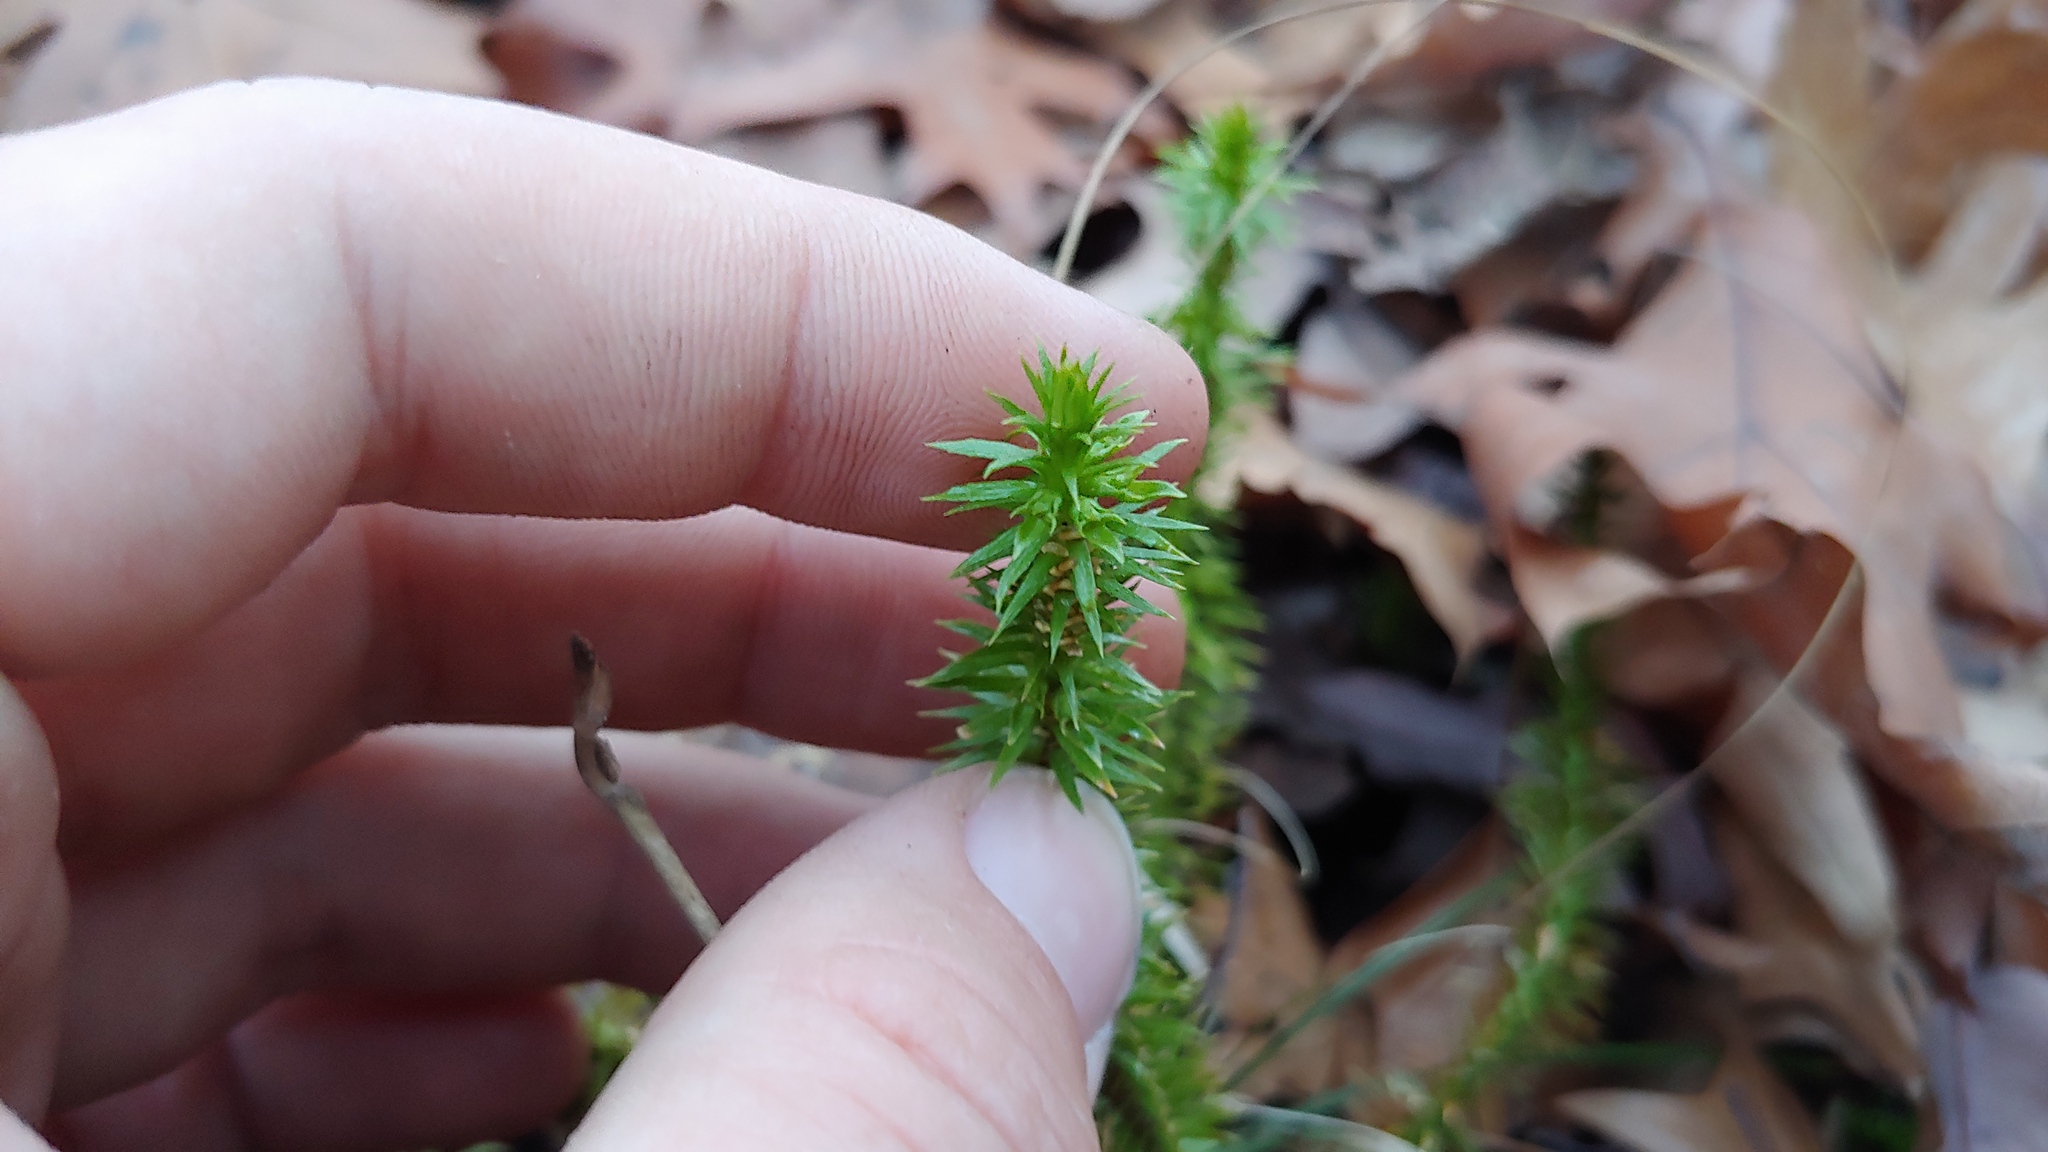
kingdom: Plantae
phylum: Tracheophyta
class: Lycopodiopsida
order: Lycopodiales
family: Lycopodiaceae
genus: Huperzia
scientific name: Huperzia lucidula
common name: Shining clubmoss
